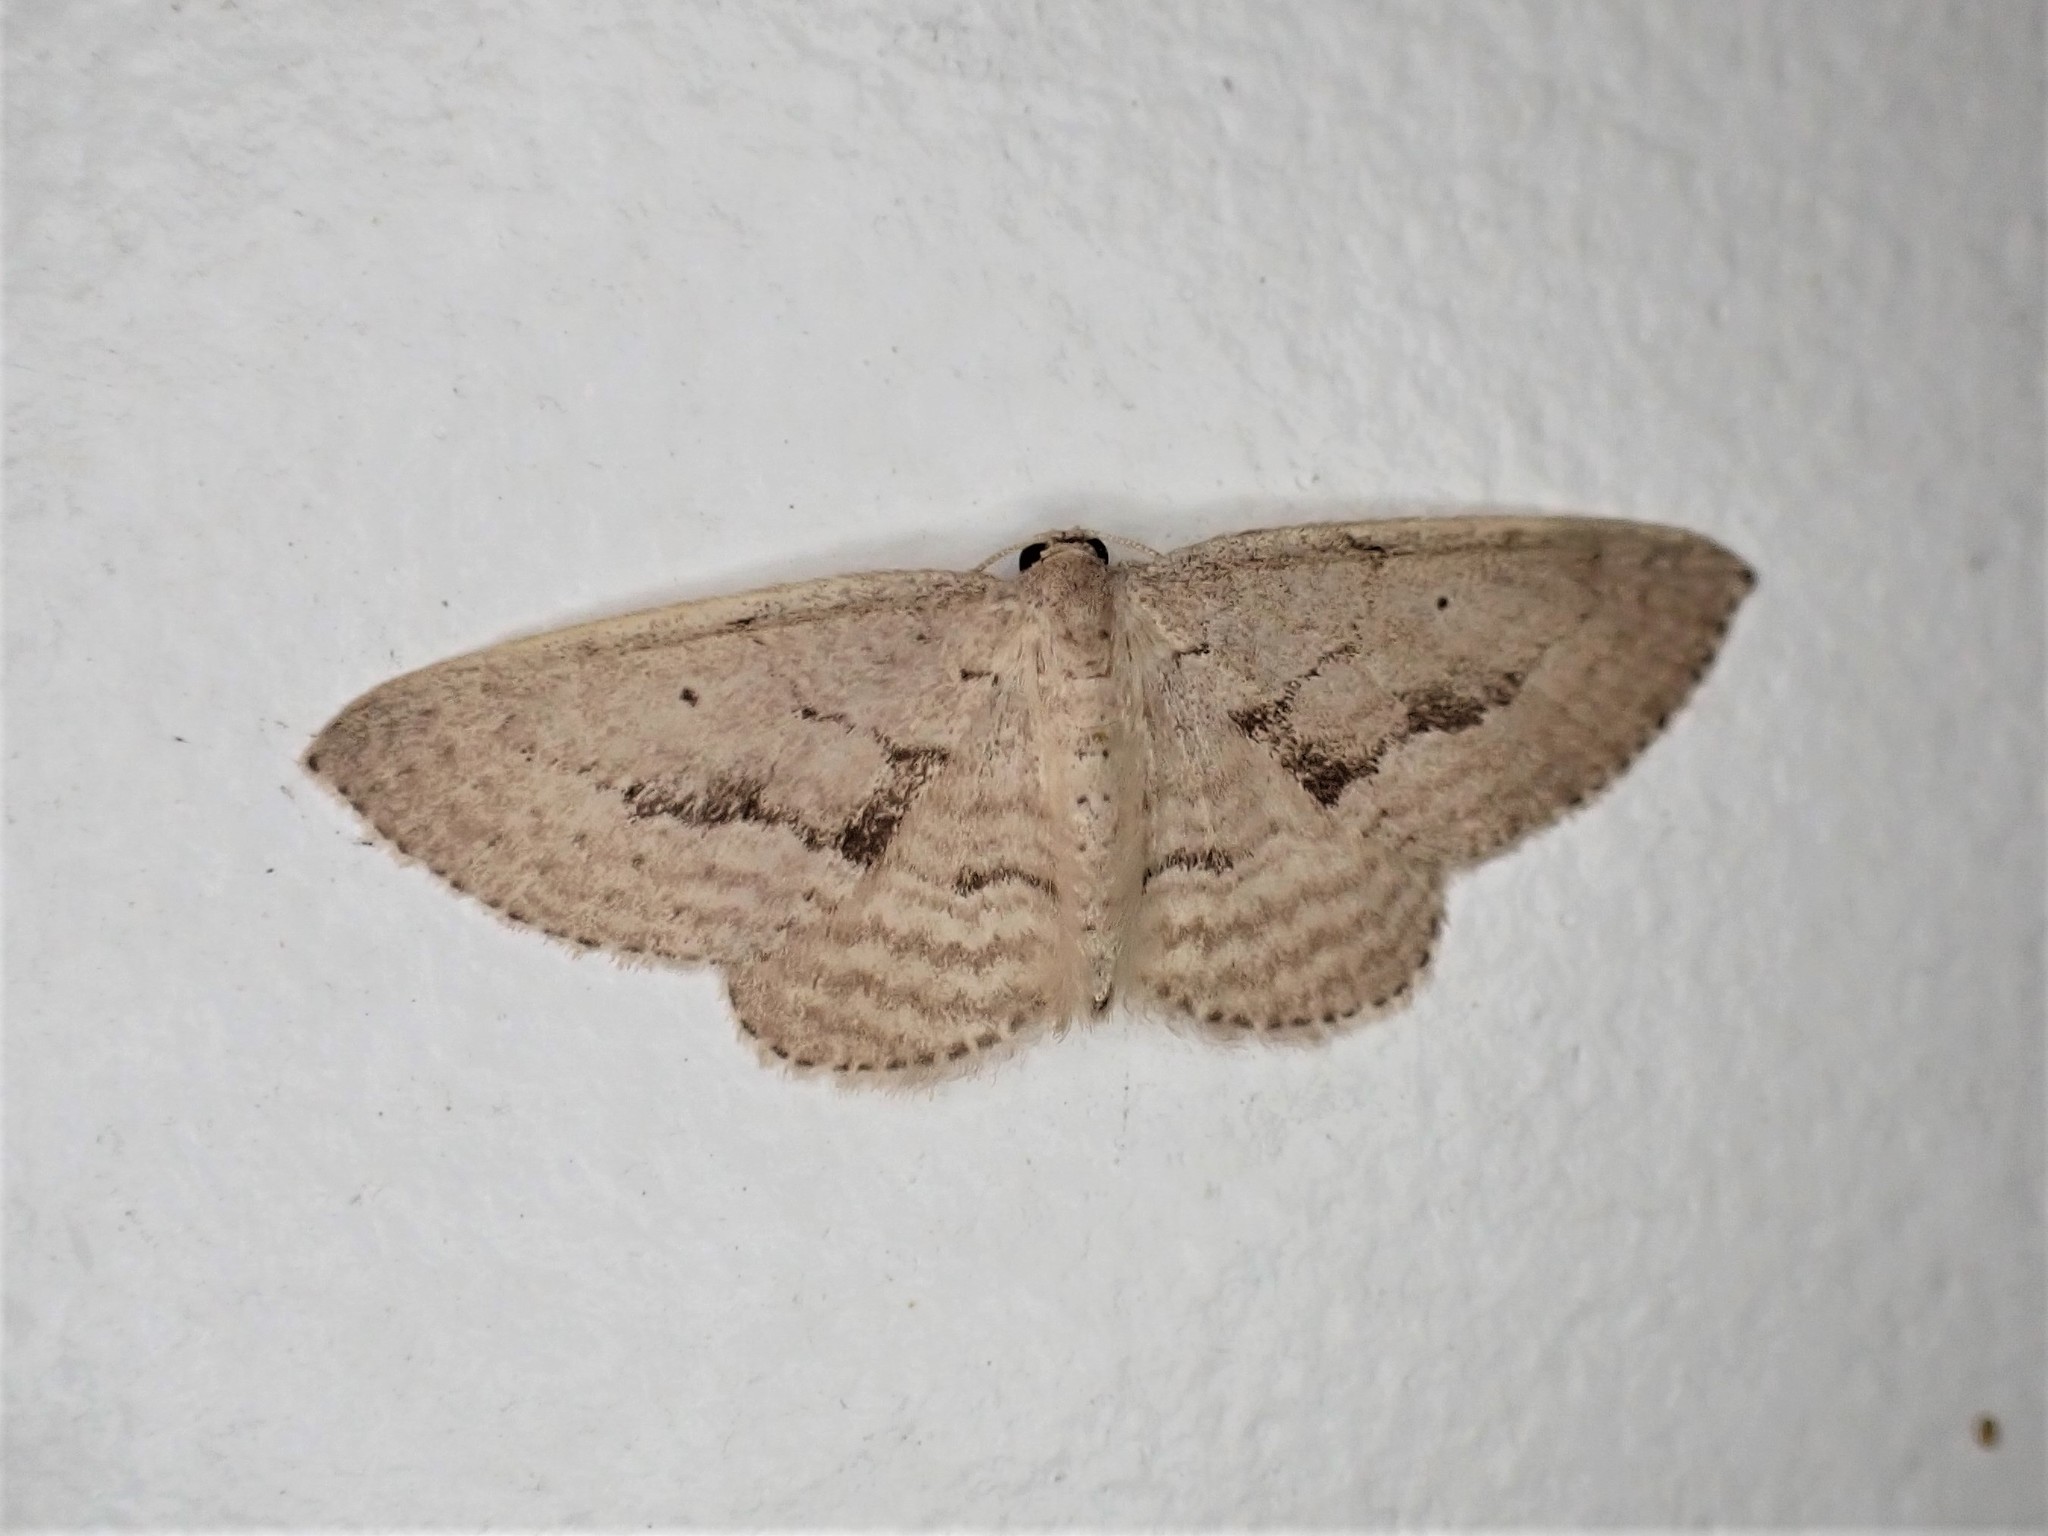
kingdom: Animalia
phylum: Arthropoda
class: Insecta
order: Lepidoptera
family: Geometridae
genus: Poecilasthena
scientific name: Poecilasthena schistaria
